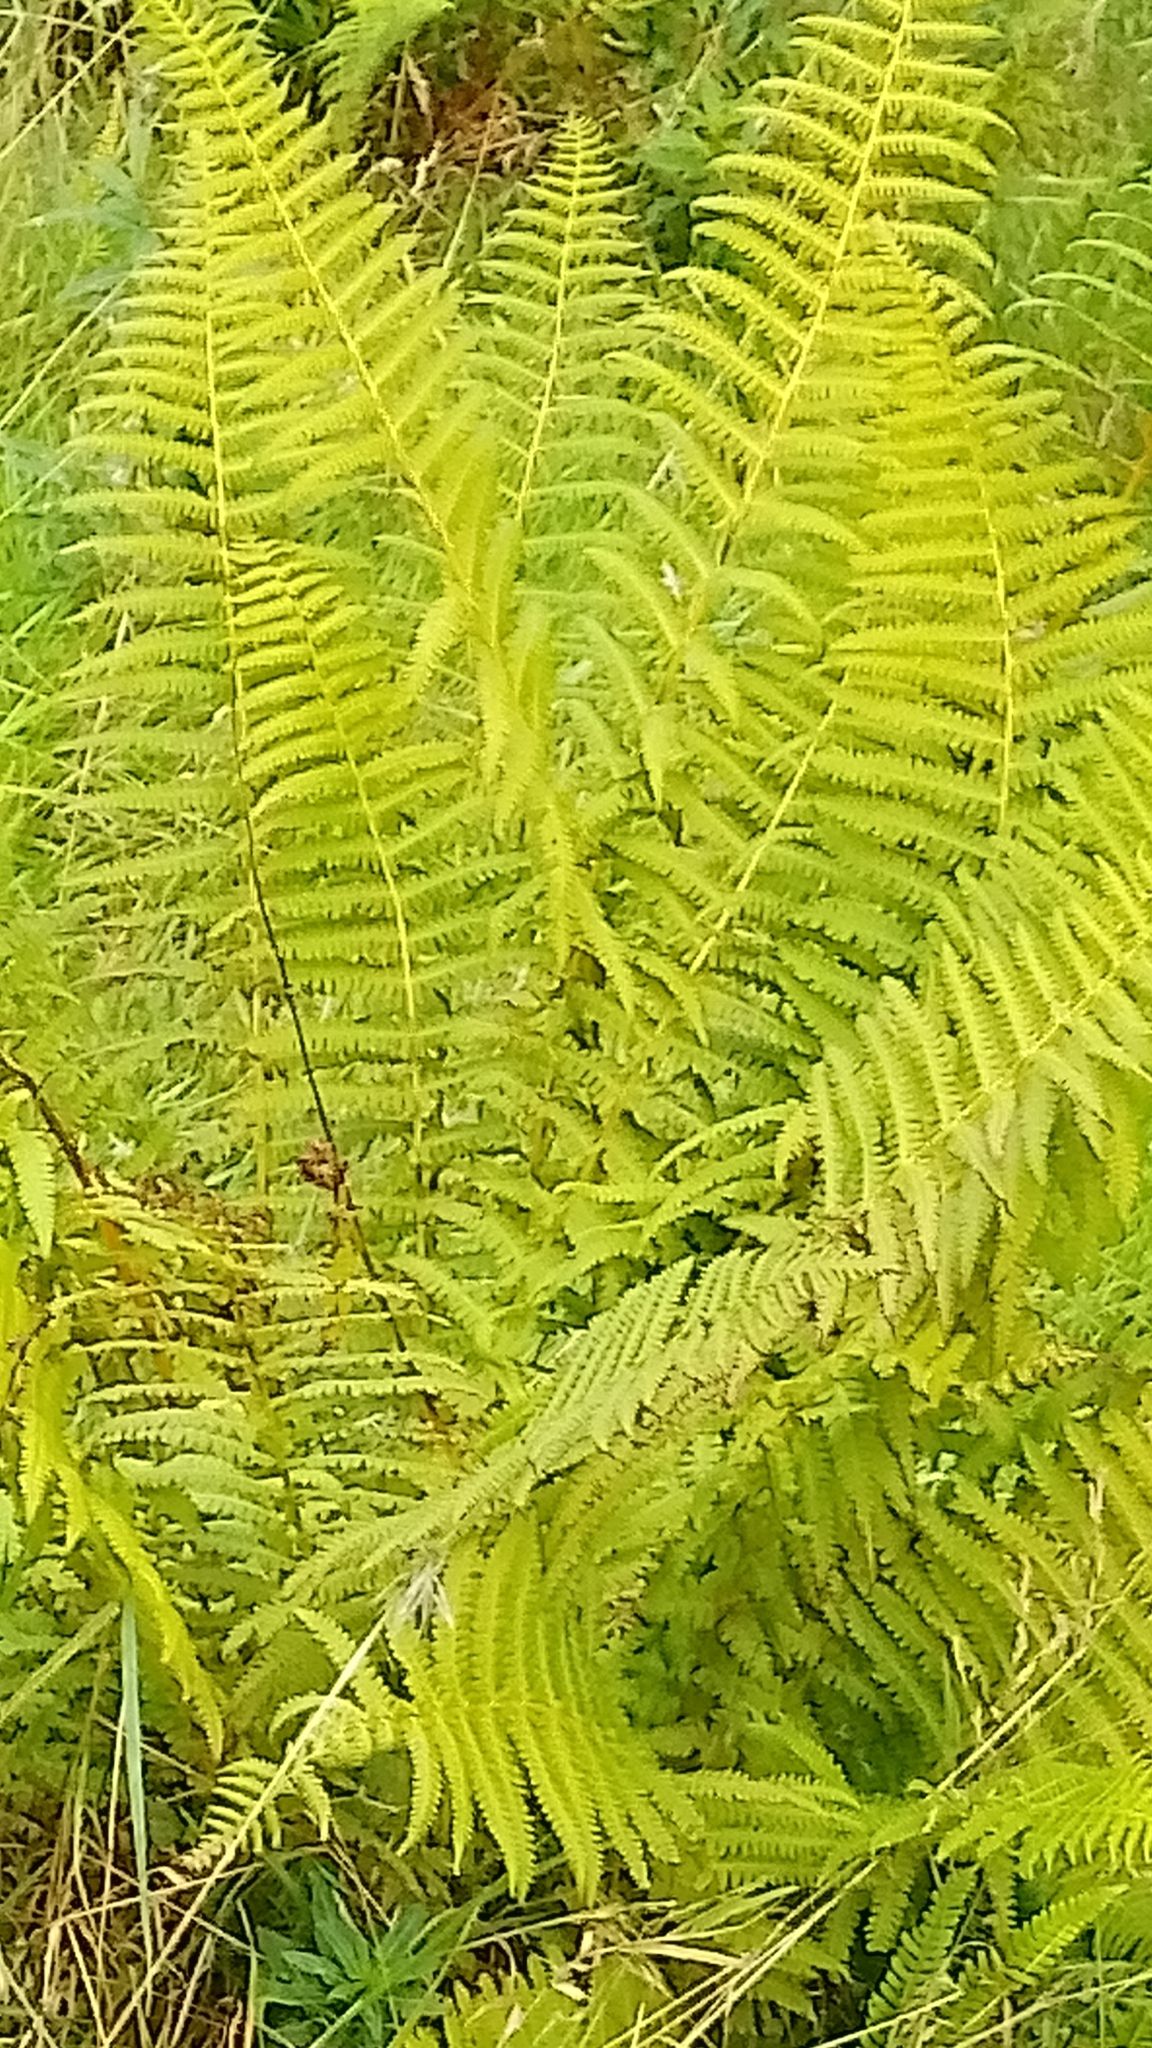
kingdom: Plantae
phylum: Tracheophyta
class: Polypodiopsida
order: Polypodiales
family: Thelypteridaceae
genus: Oreopteris
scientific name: Oreopteris limbosperma
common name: Lemon-scented fern
